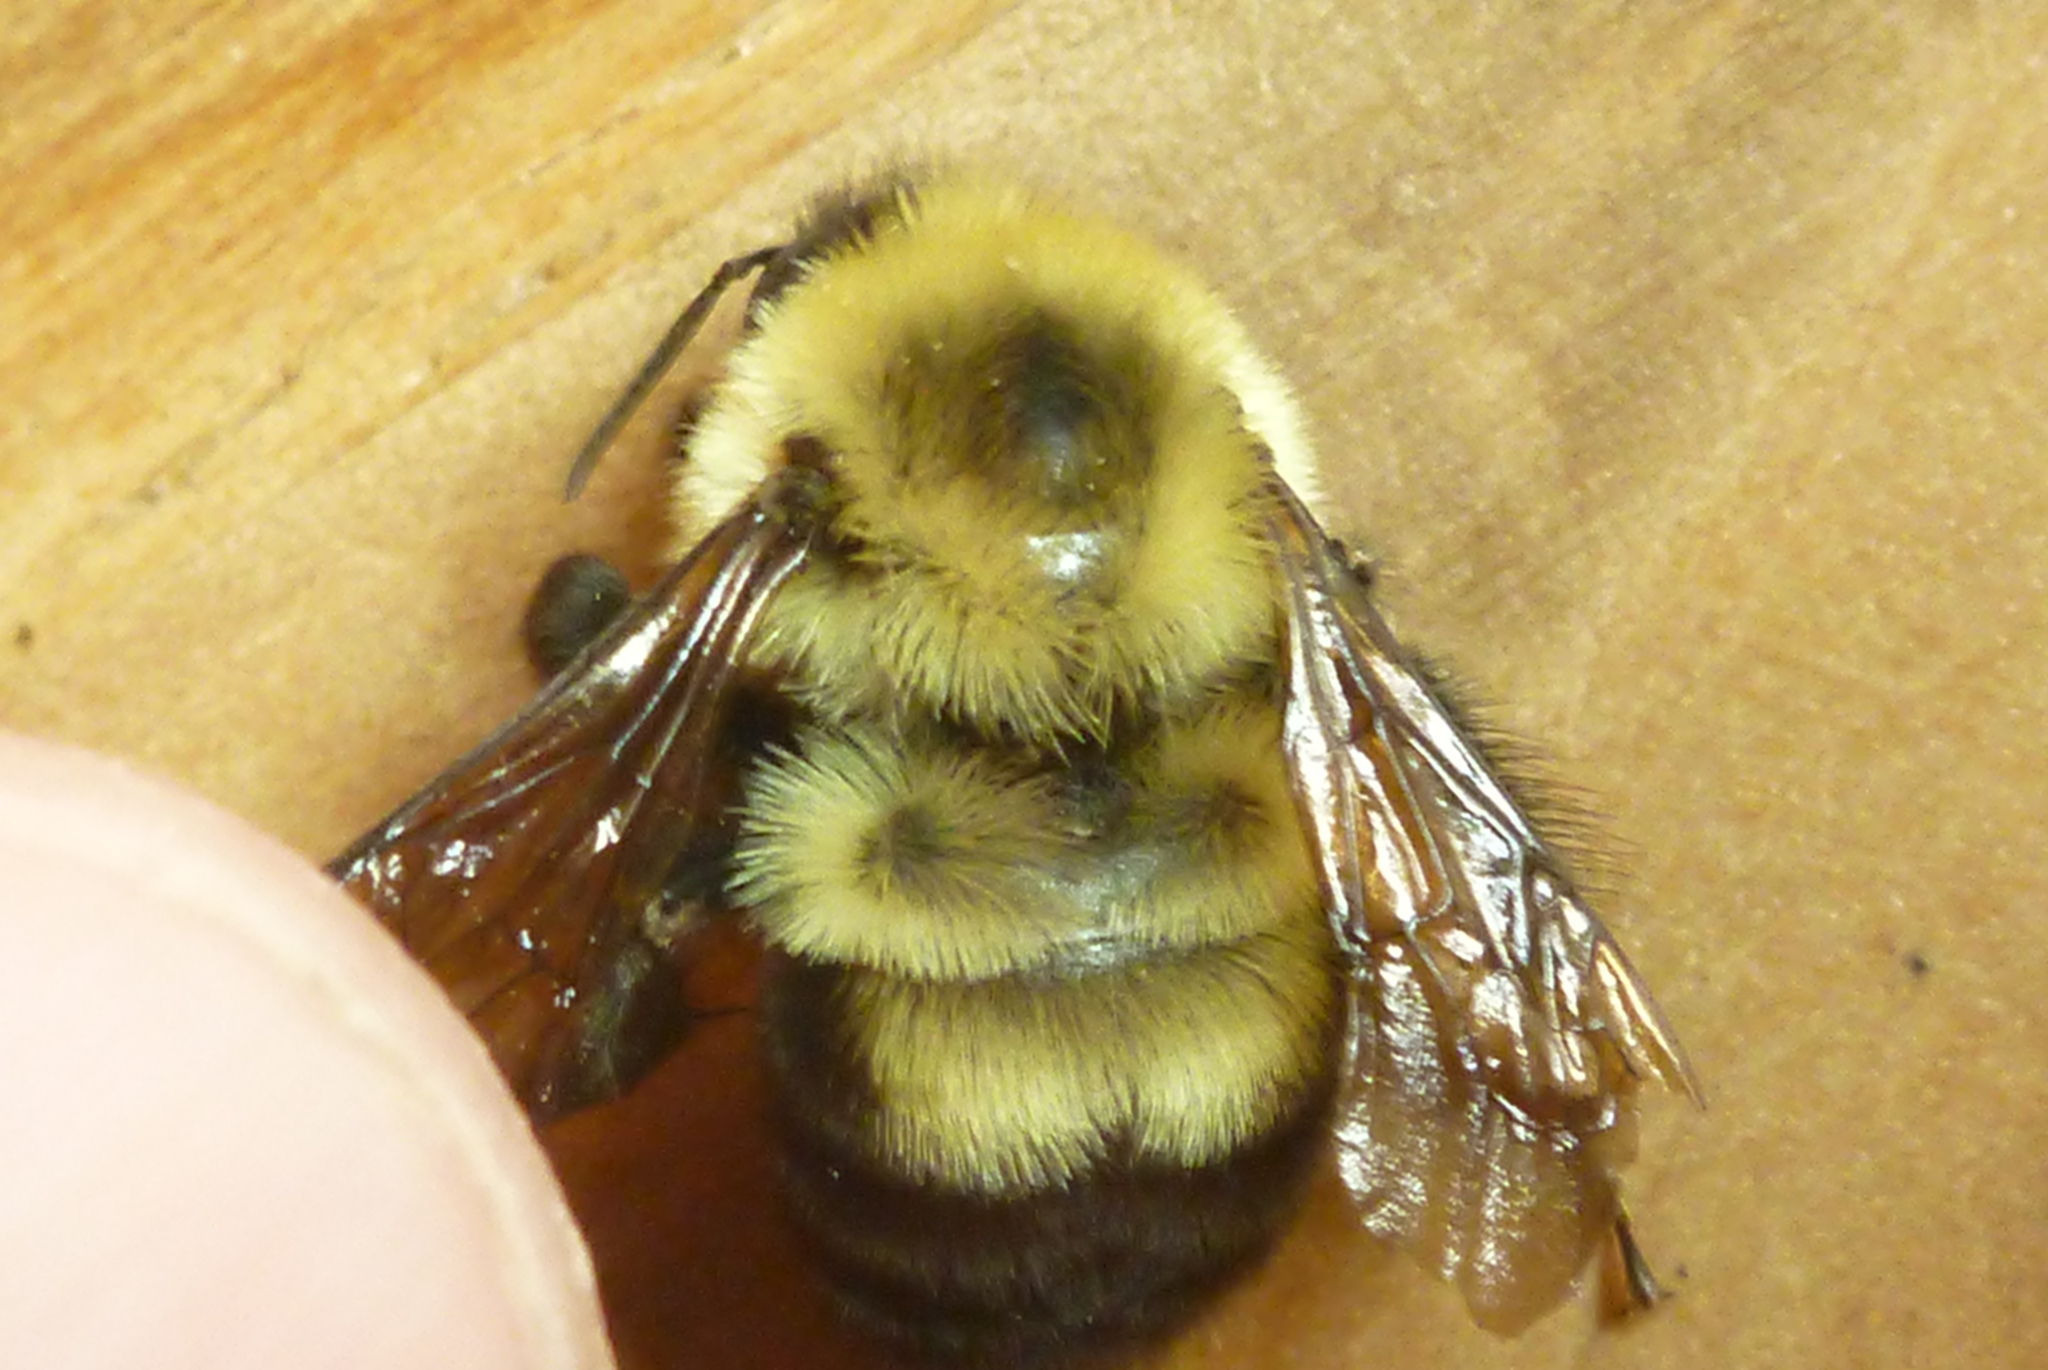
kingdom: Animalia
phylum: Arthropoda
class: Insecta
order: Hymenoptera
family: Apidae
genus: Bombus
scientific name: Bombus bimaculatus
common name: Two-spotted bumble bee
